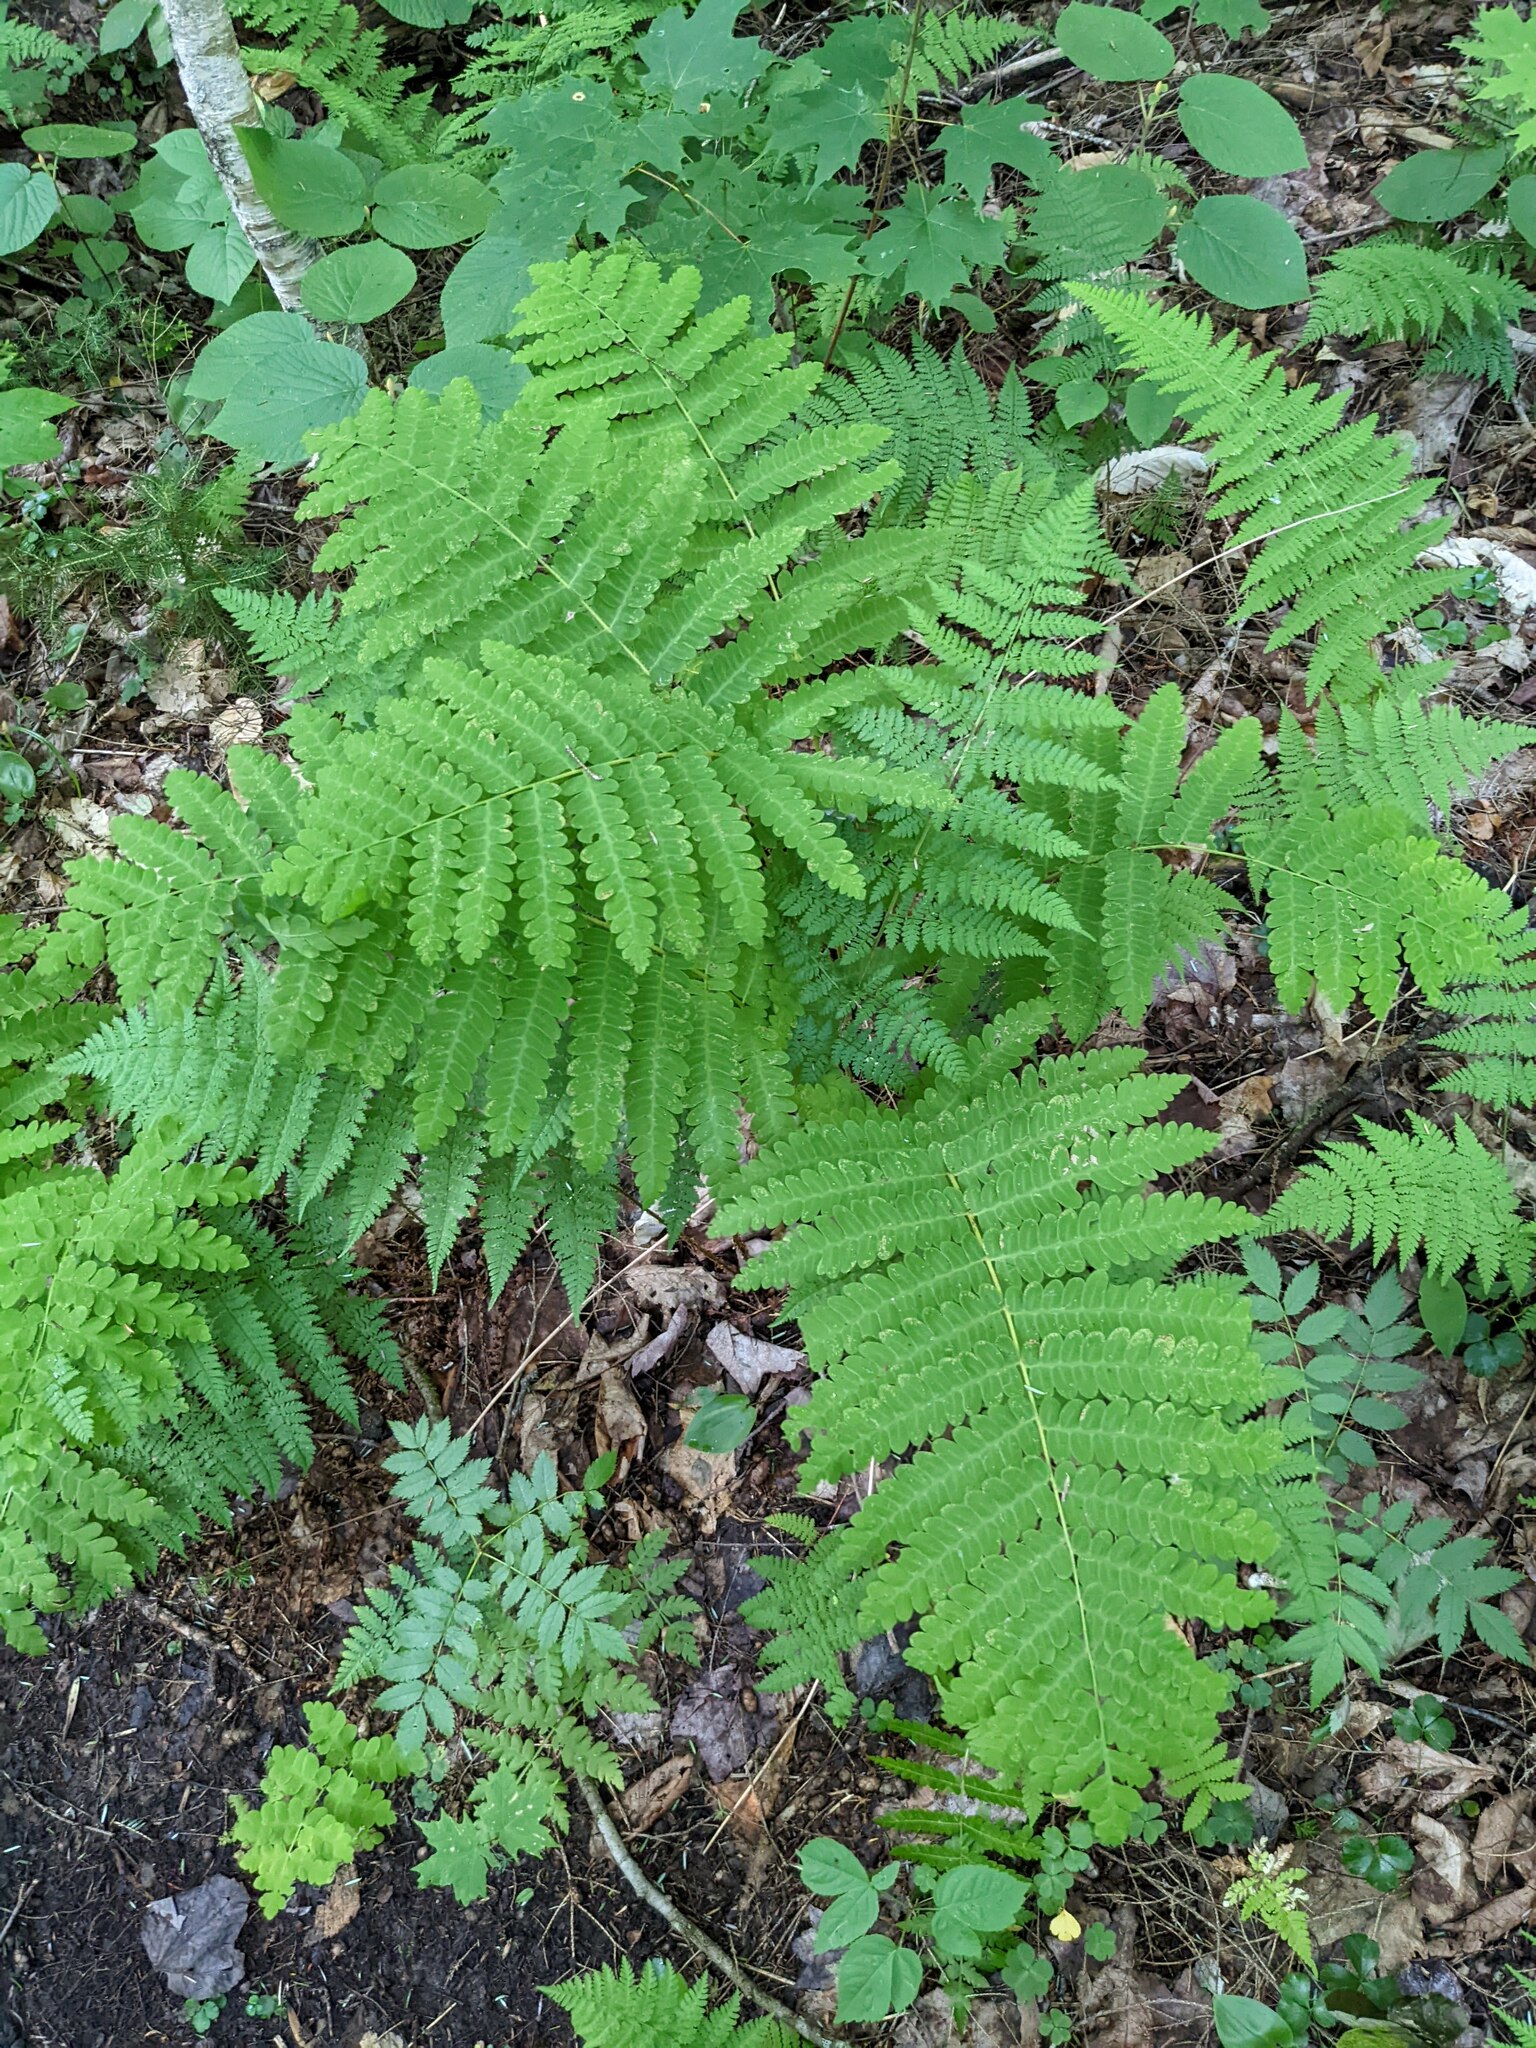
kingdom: Plantae
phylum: Tracheophyta
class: Polypodiopsida
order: Osmundales
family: Osmundaceae
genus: Claytosmunda
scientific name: Claytosmunda claytoniana
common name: Clayton's fern
